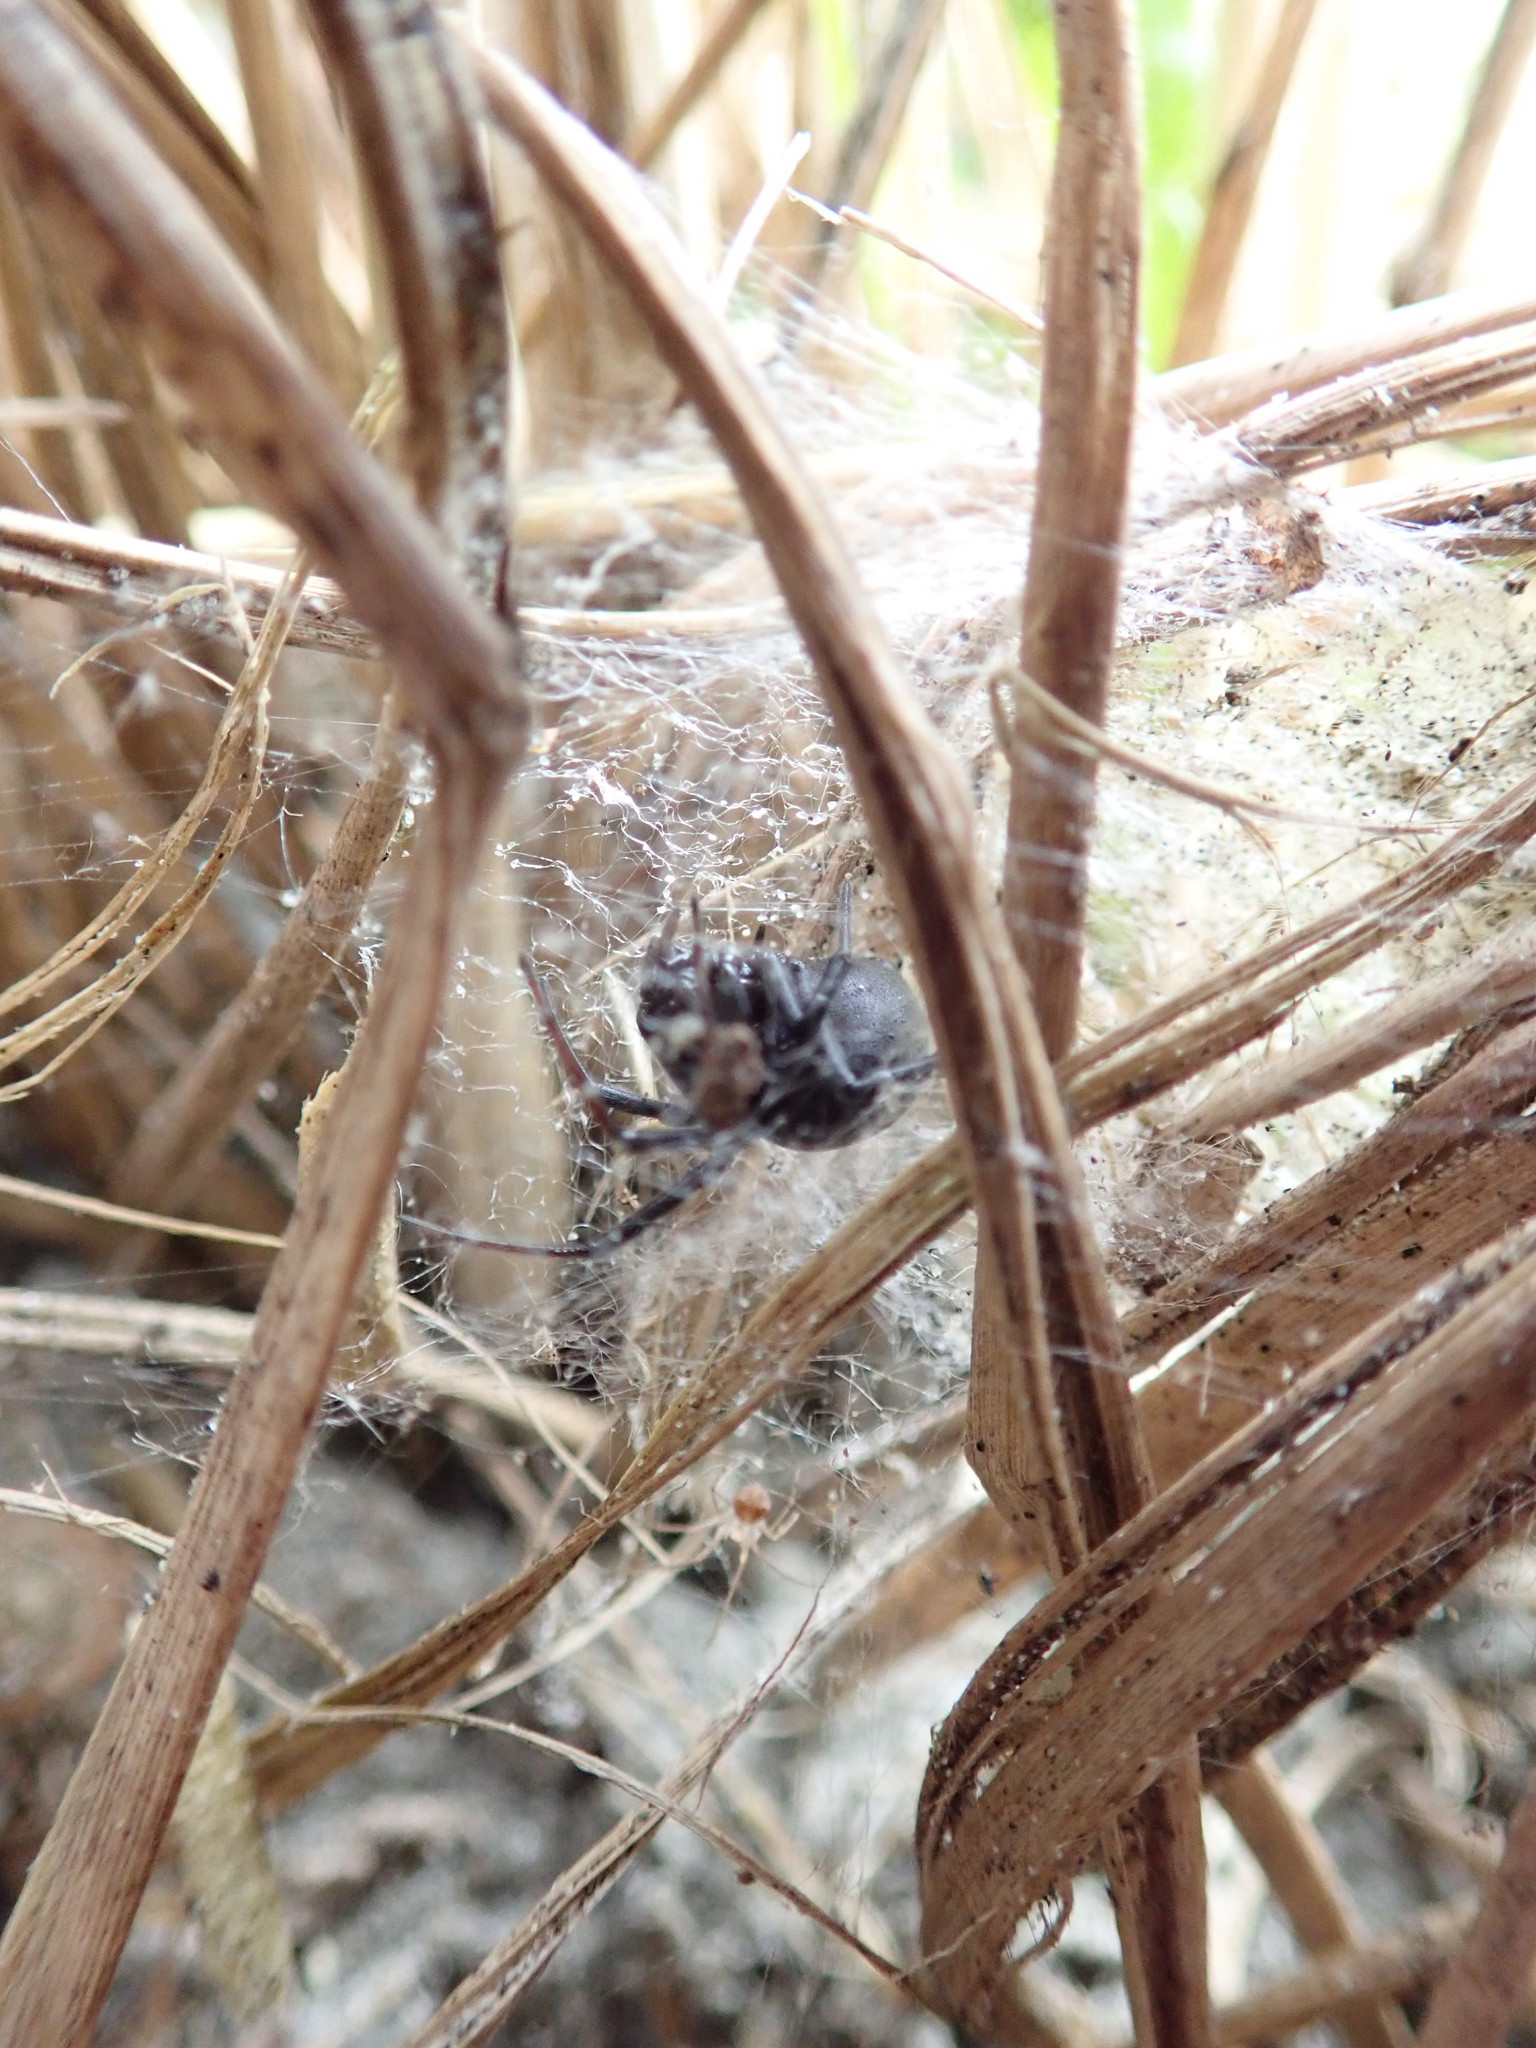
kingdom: Animalia
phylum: Arthropoda
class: Arachnida
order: Araneae
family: Theridiidae
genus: Latrodectus
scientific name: Latrodectus katipo
